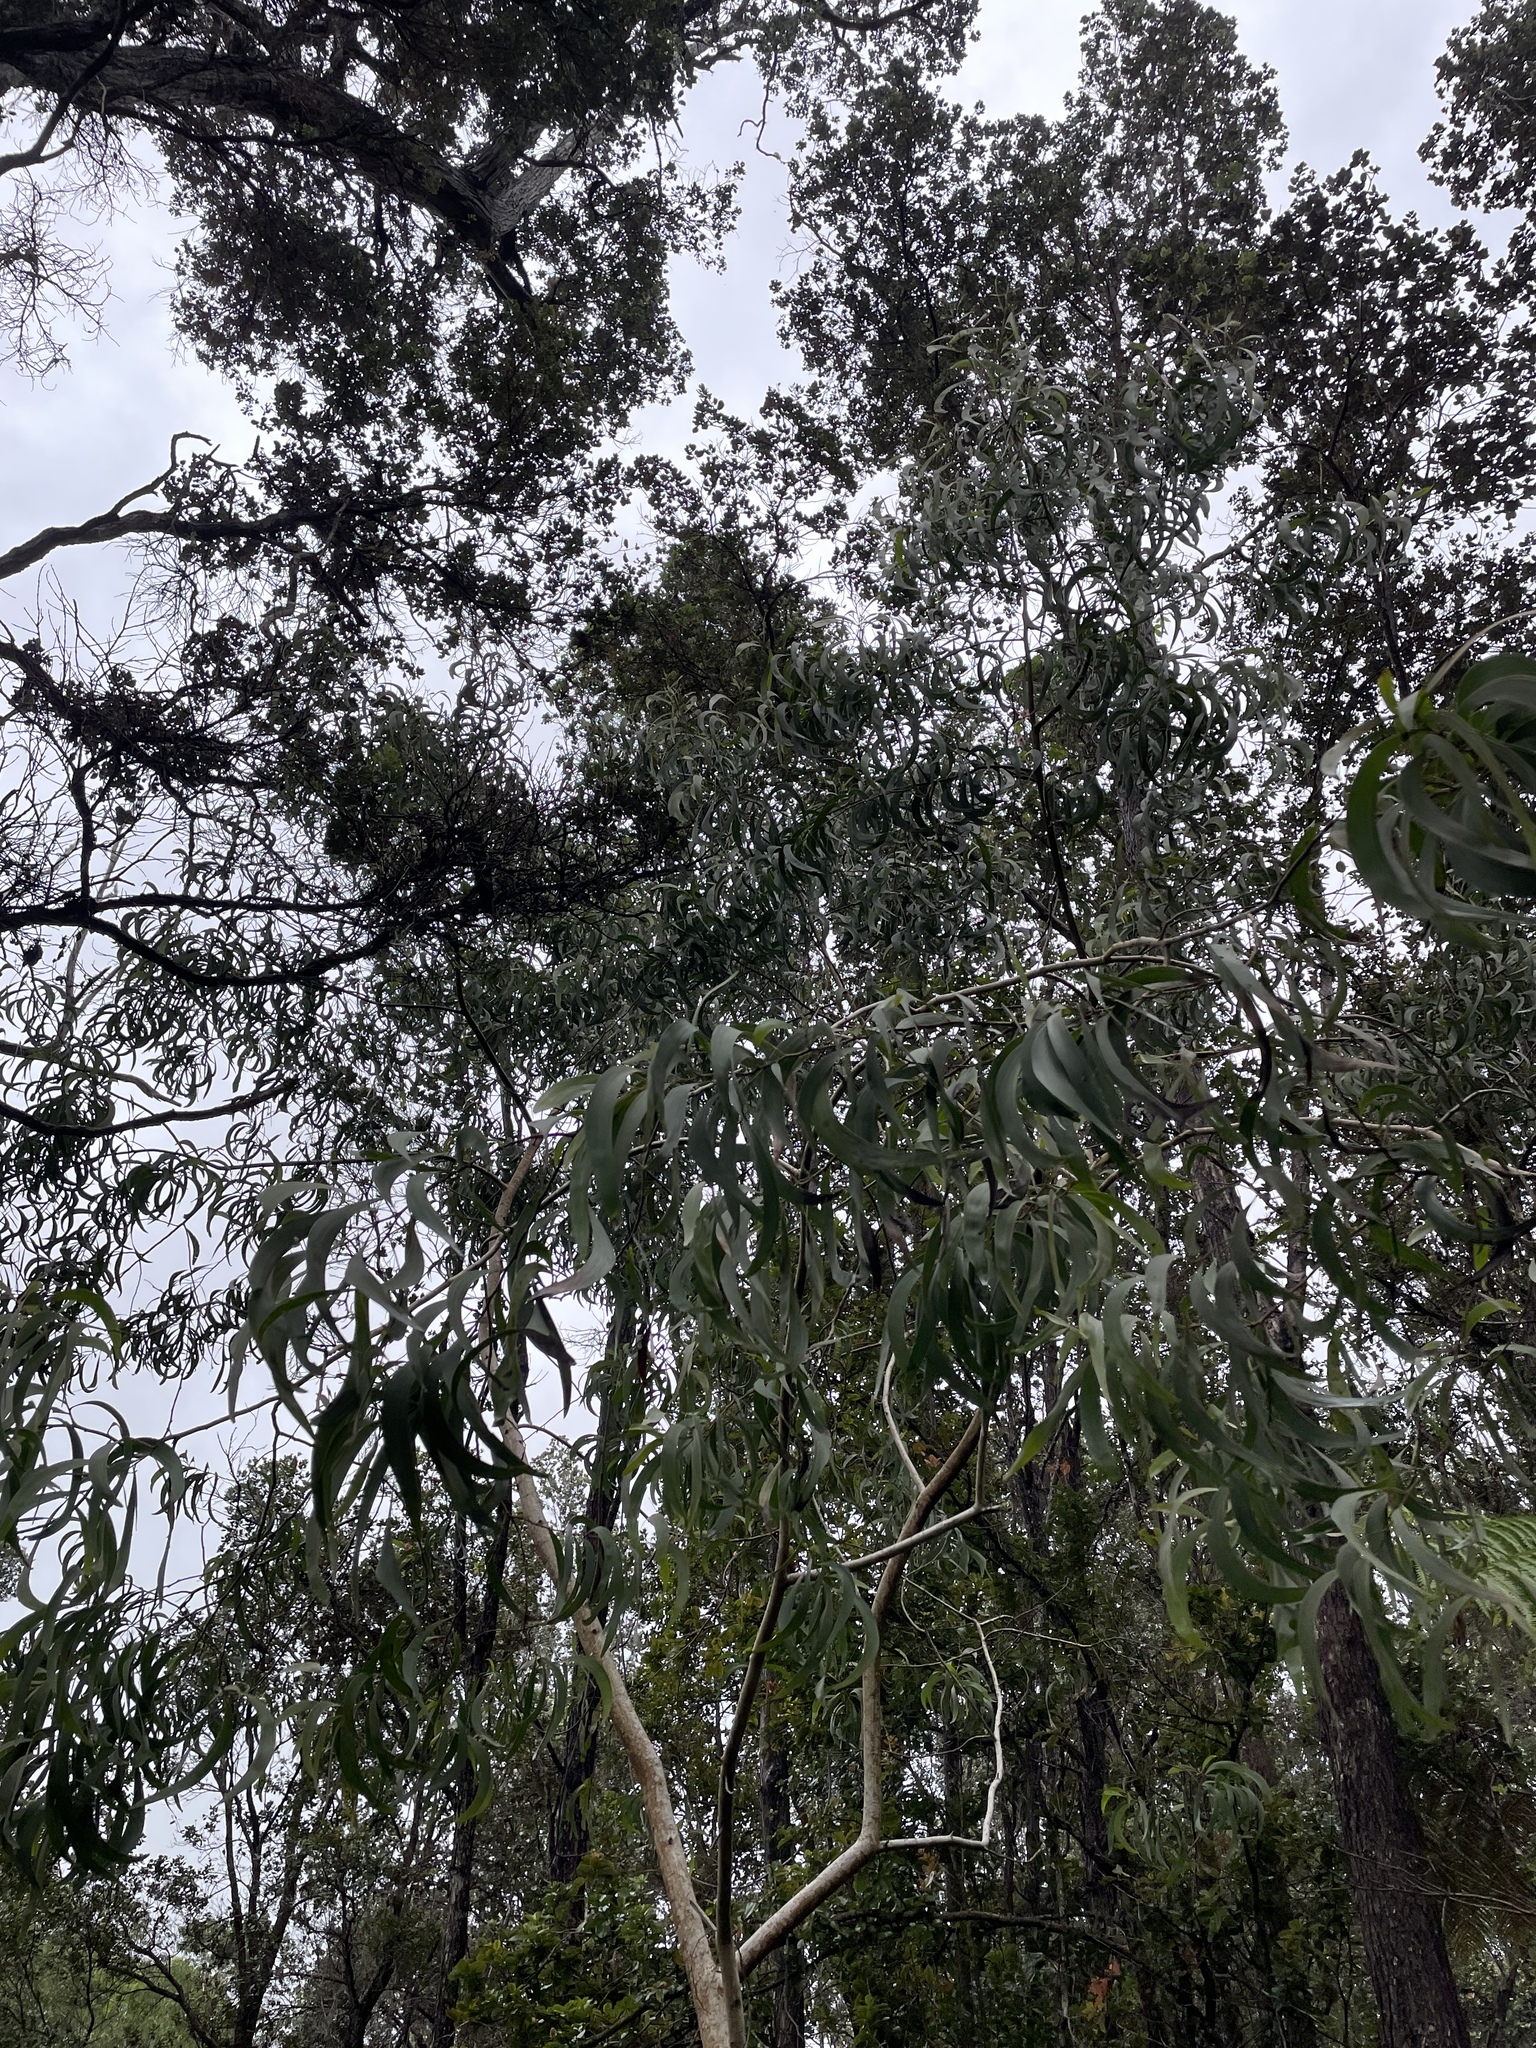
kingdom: Plantae
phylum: Tracheophyta
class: Magnoliopsida
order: Fabales
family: Fabaceae
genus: Acacia
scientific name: Acacia koa
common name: Gray koa
